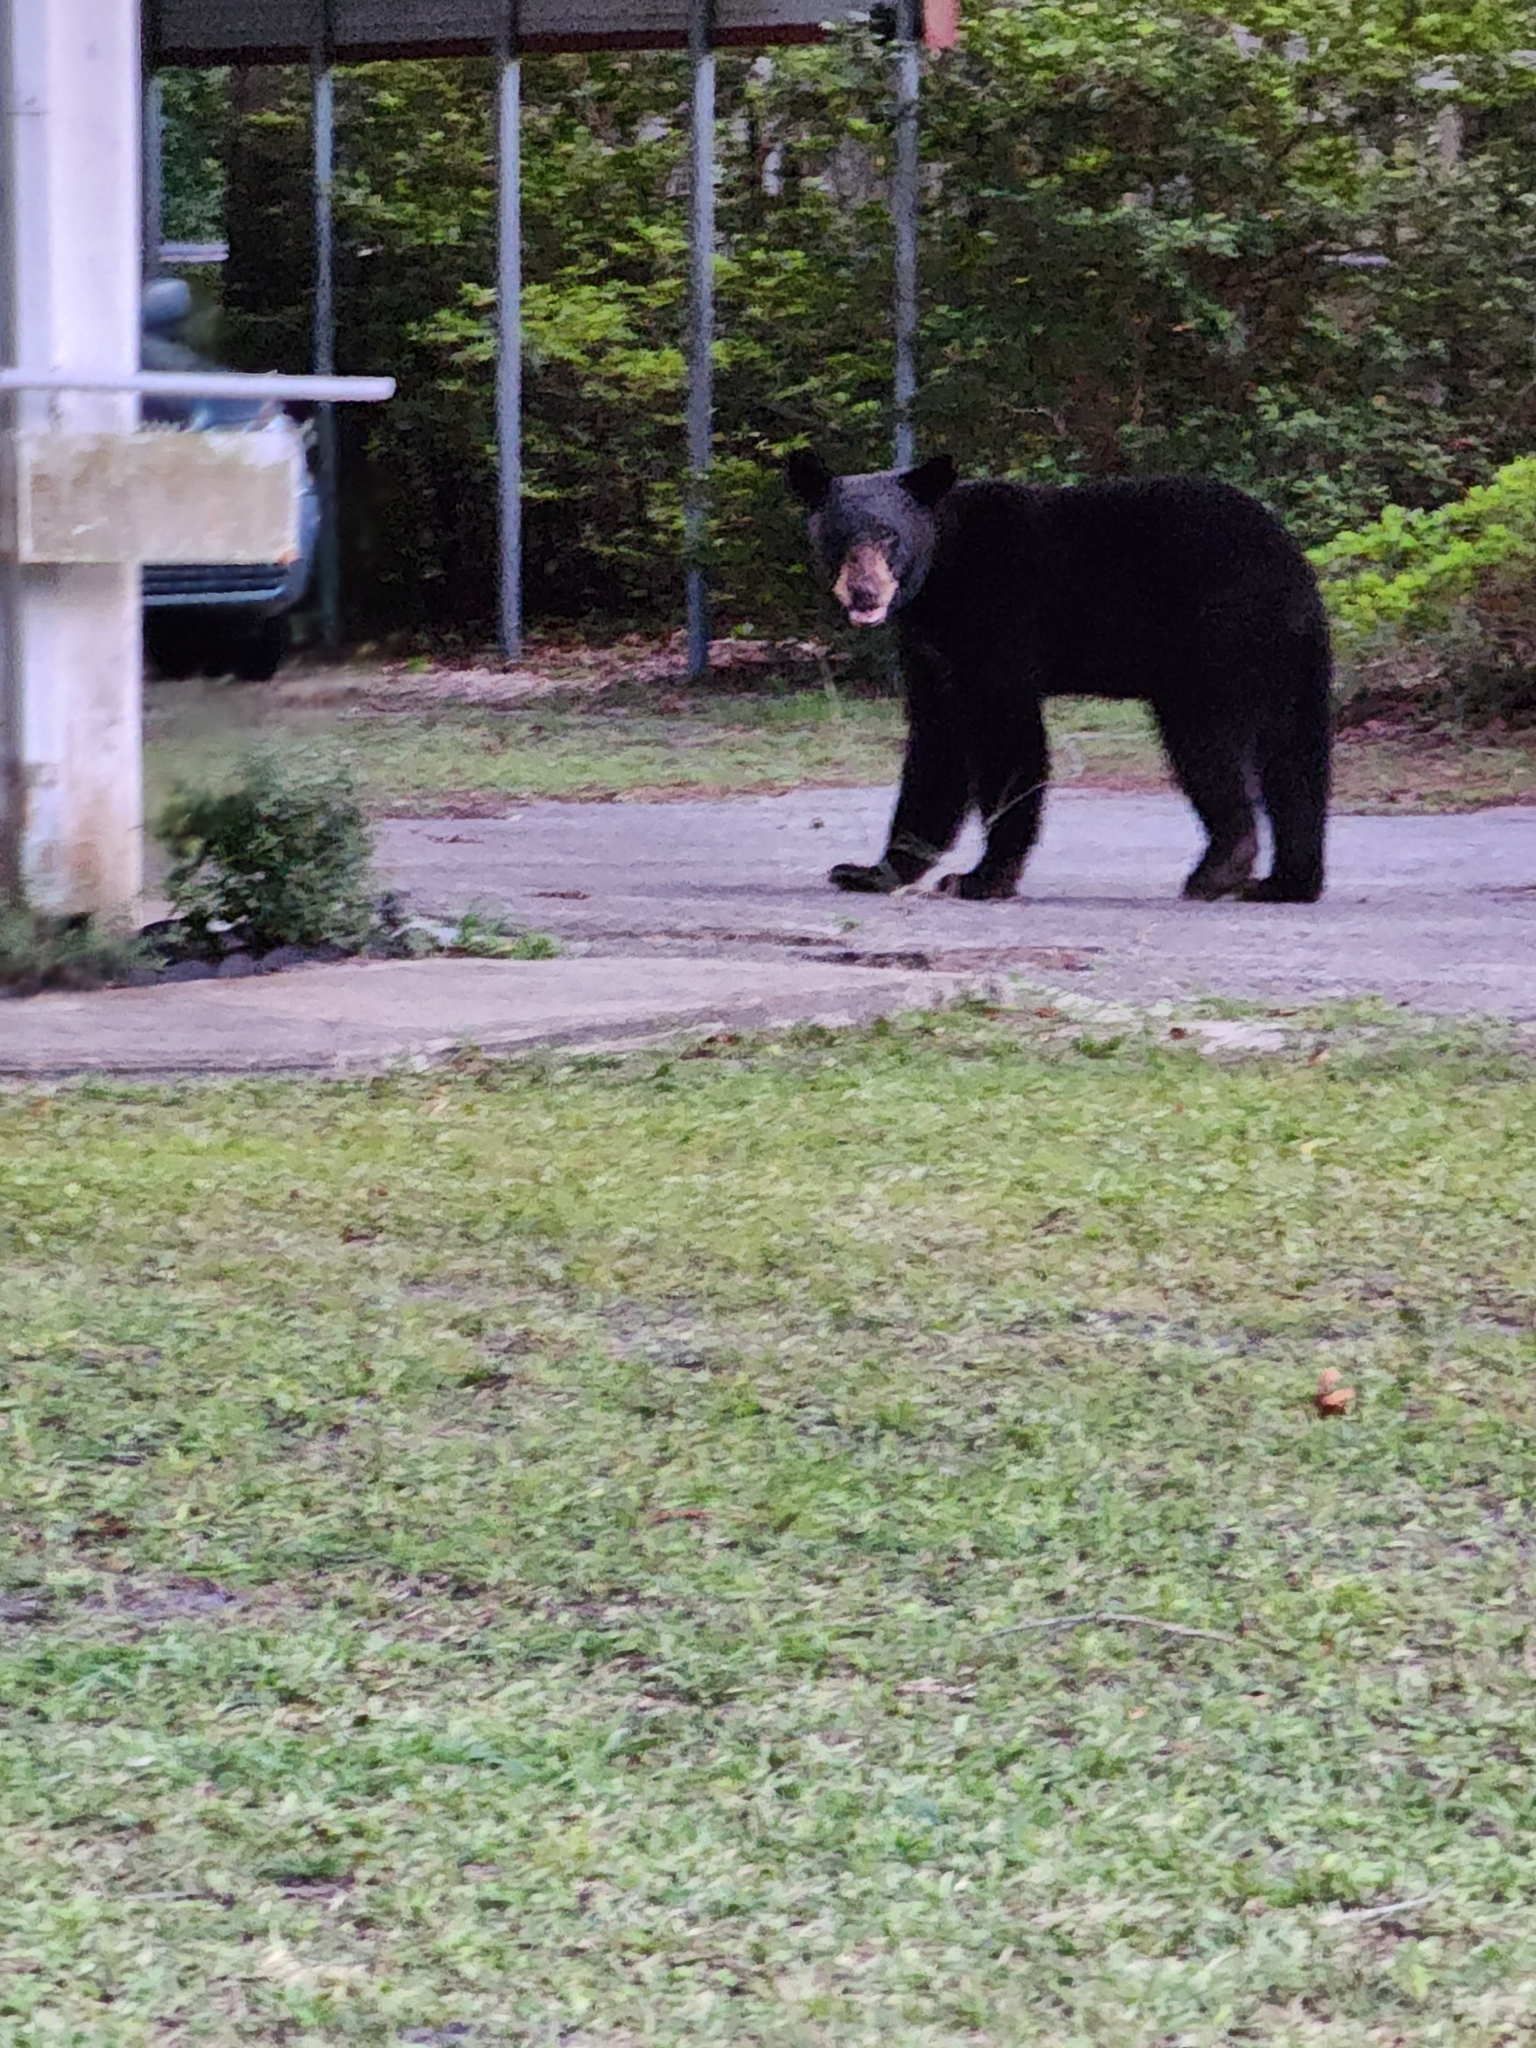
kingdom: Animalia
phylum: Chordata
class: Mammalia
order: Carnivora
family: Ursidae
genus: Ursus
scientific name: Ursus americanus
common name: American black bear
